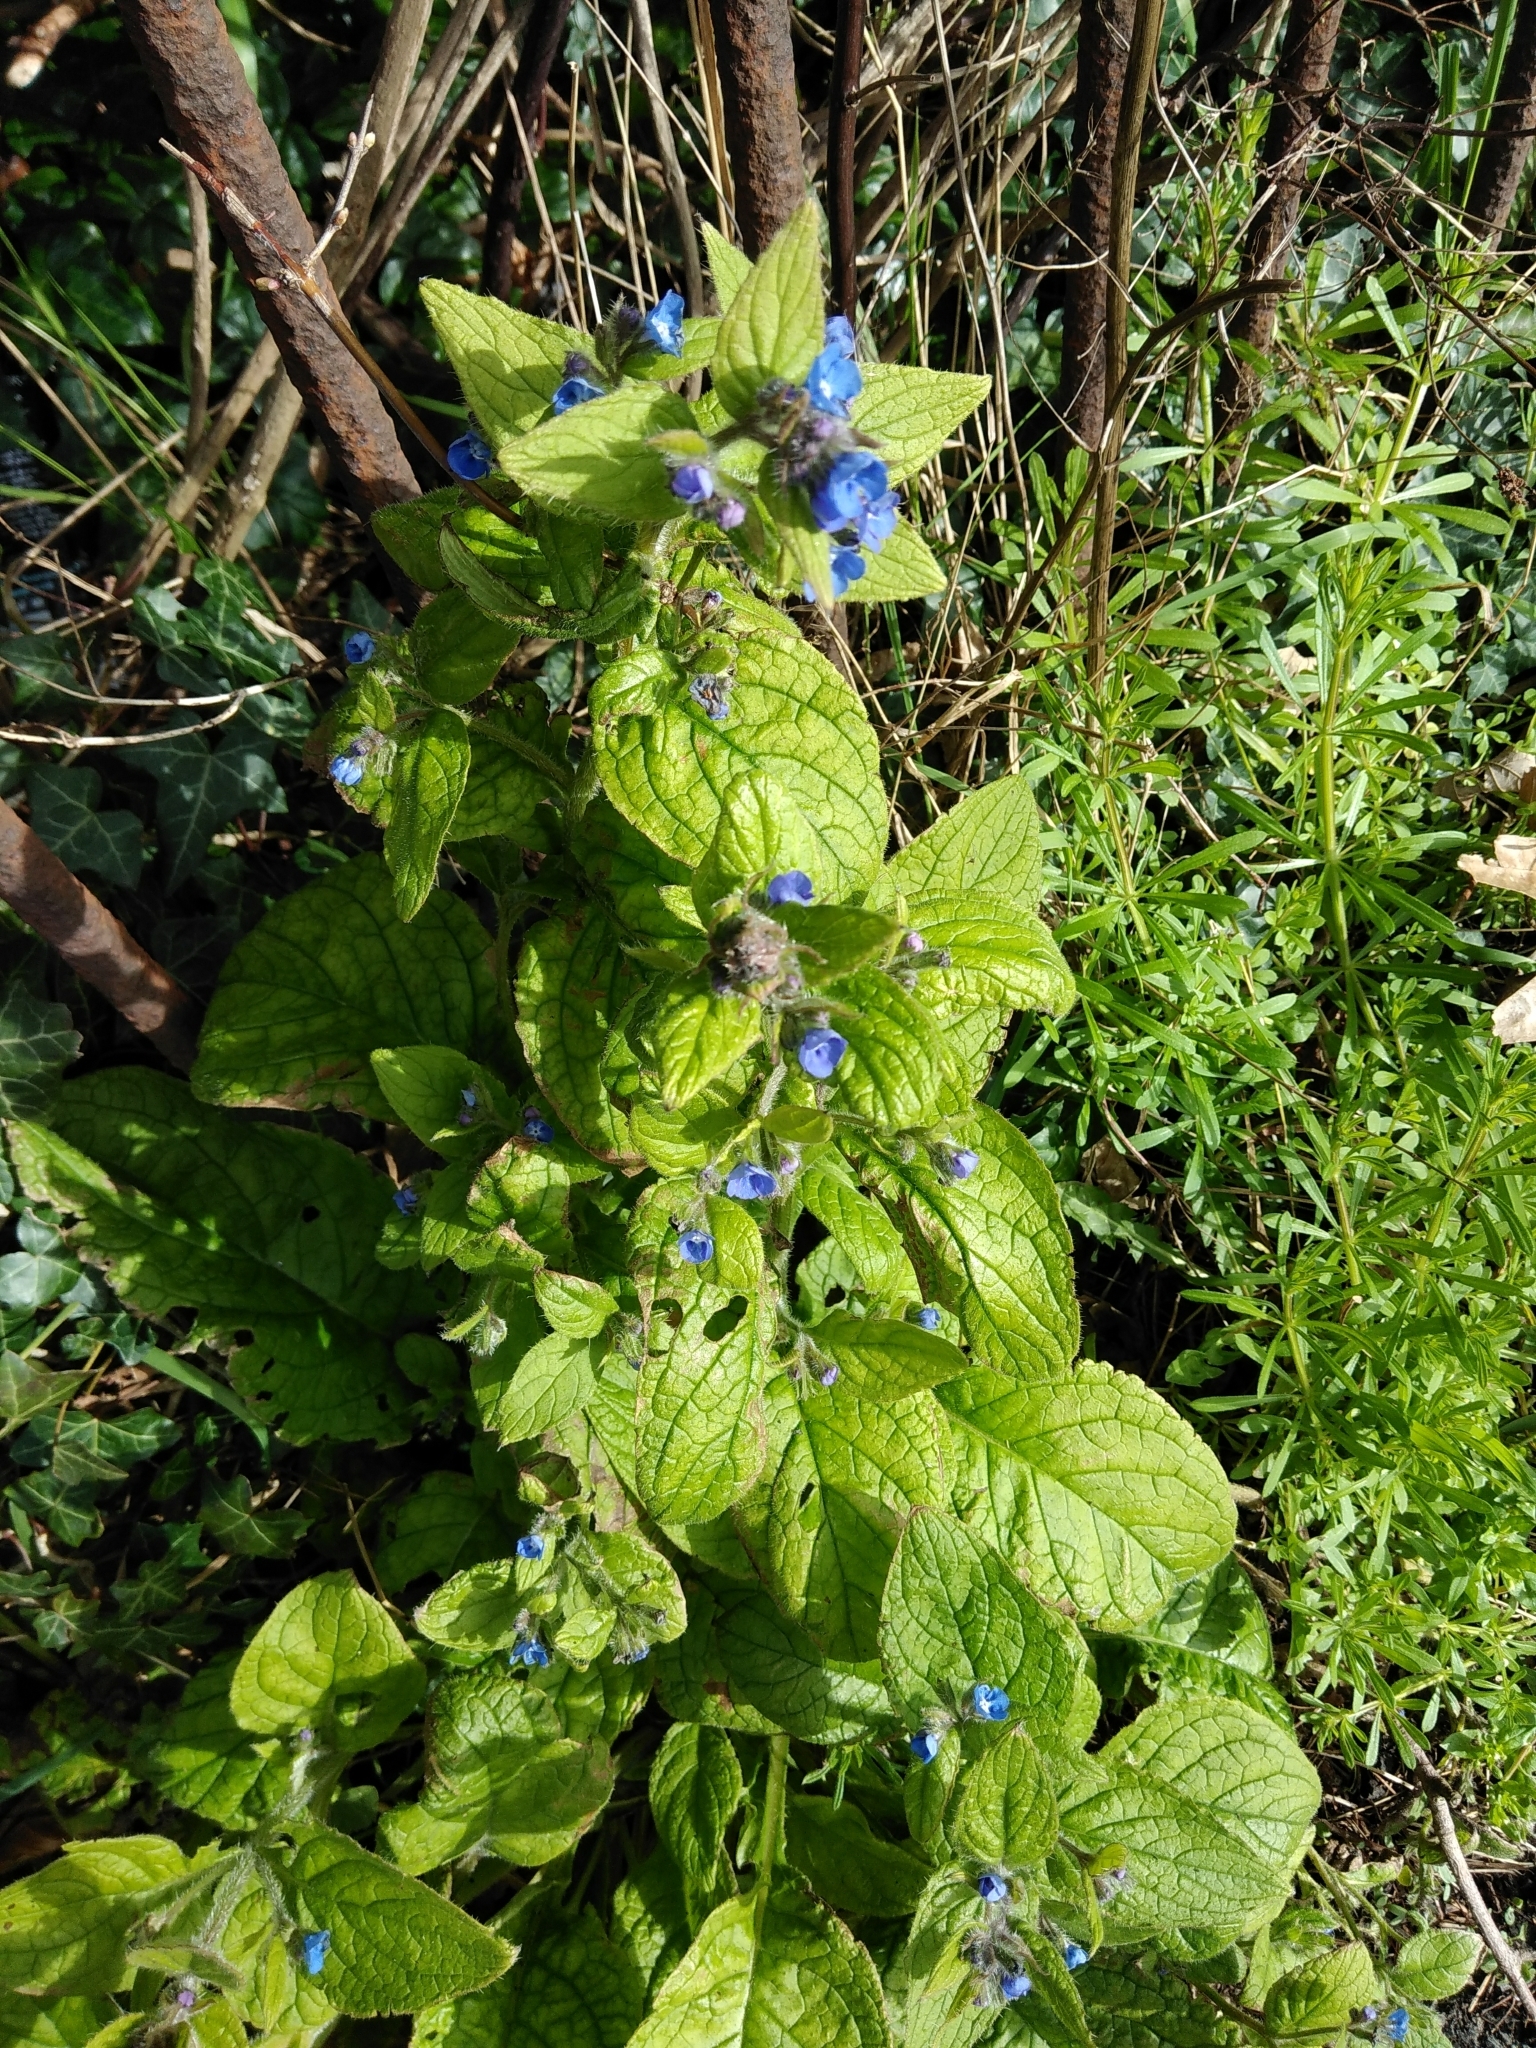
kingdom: Plantae
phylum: Tracheophyta
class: Magnoliopsida
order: Boraginales
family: Boraginaceae
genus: Pentaglottis
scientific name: Pentaglottis sempervirens
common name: Green alkanet
